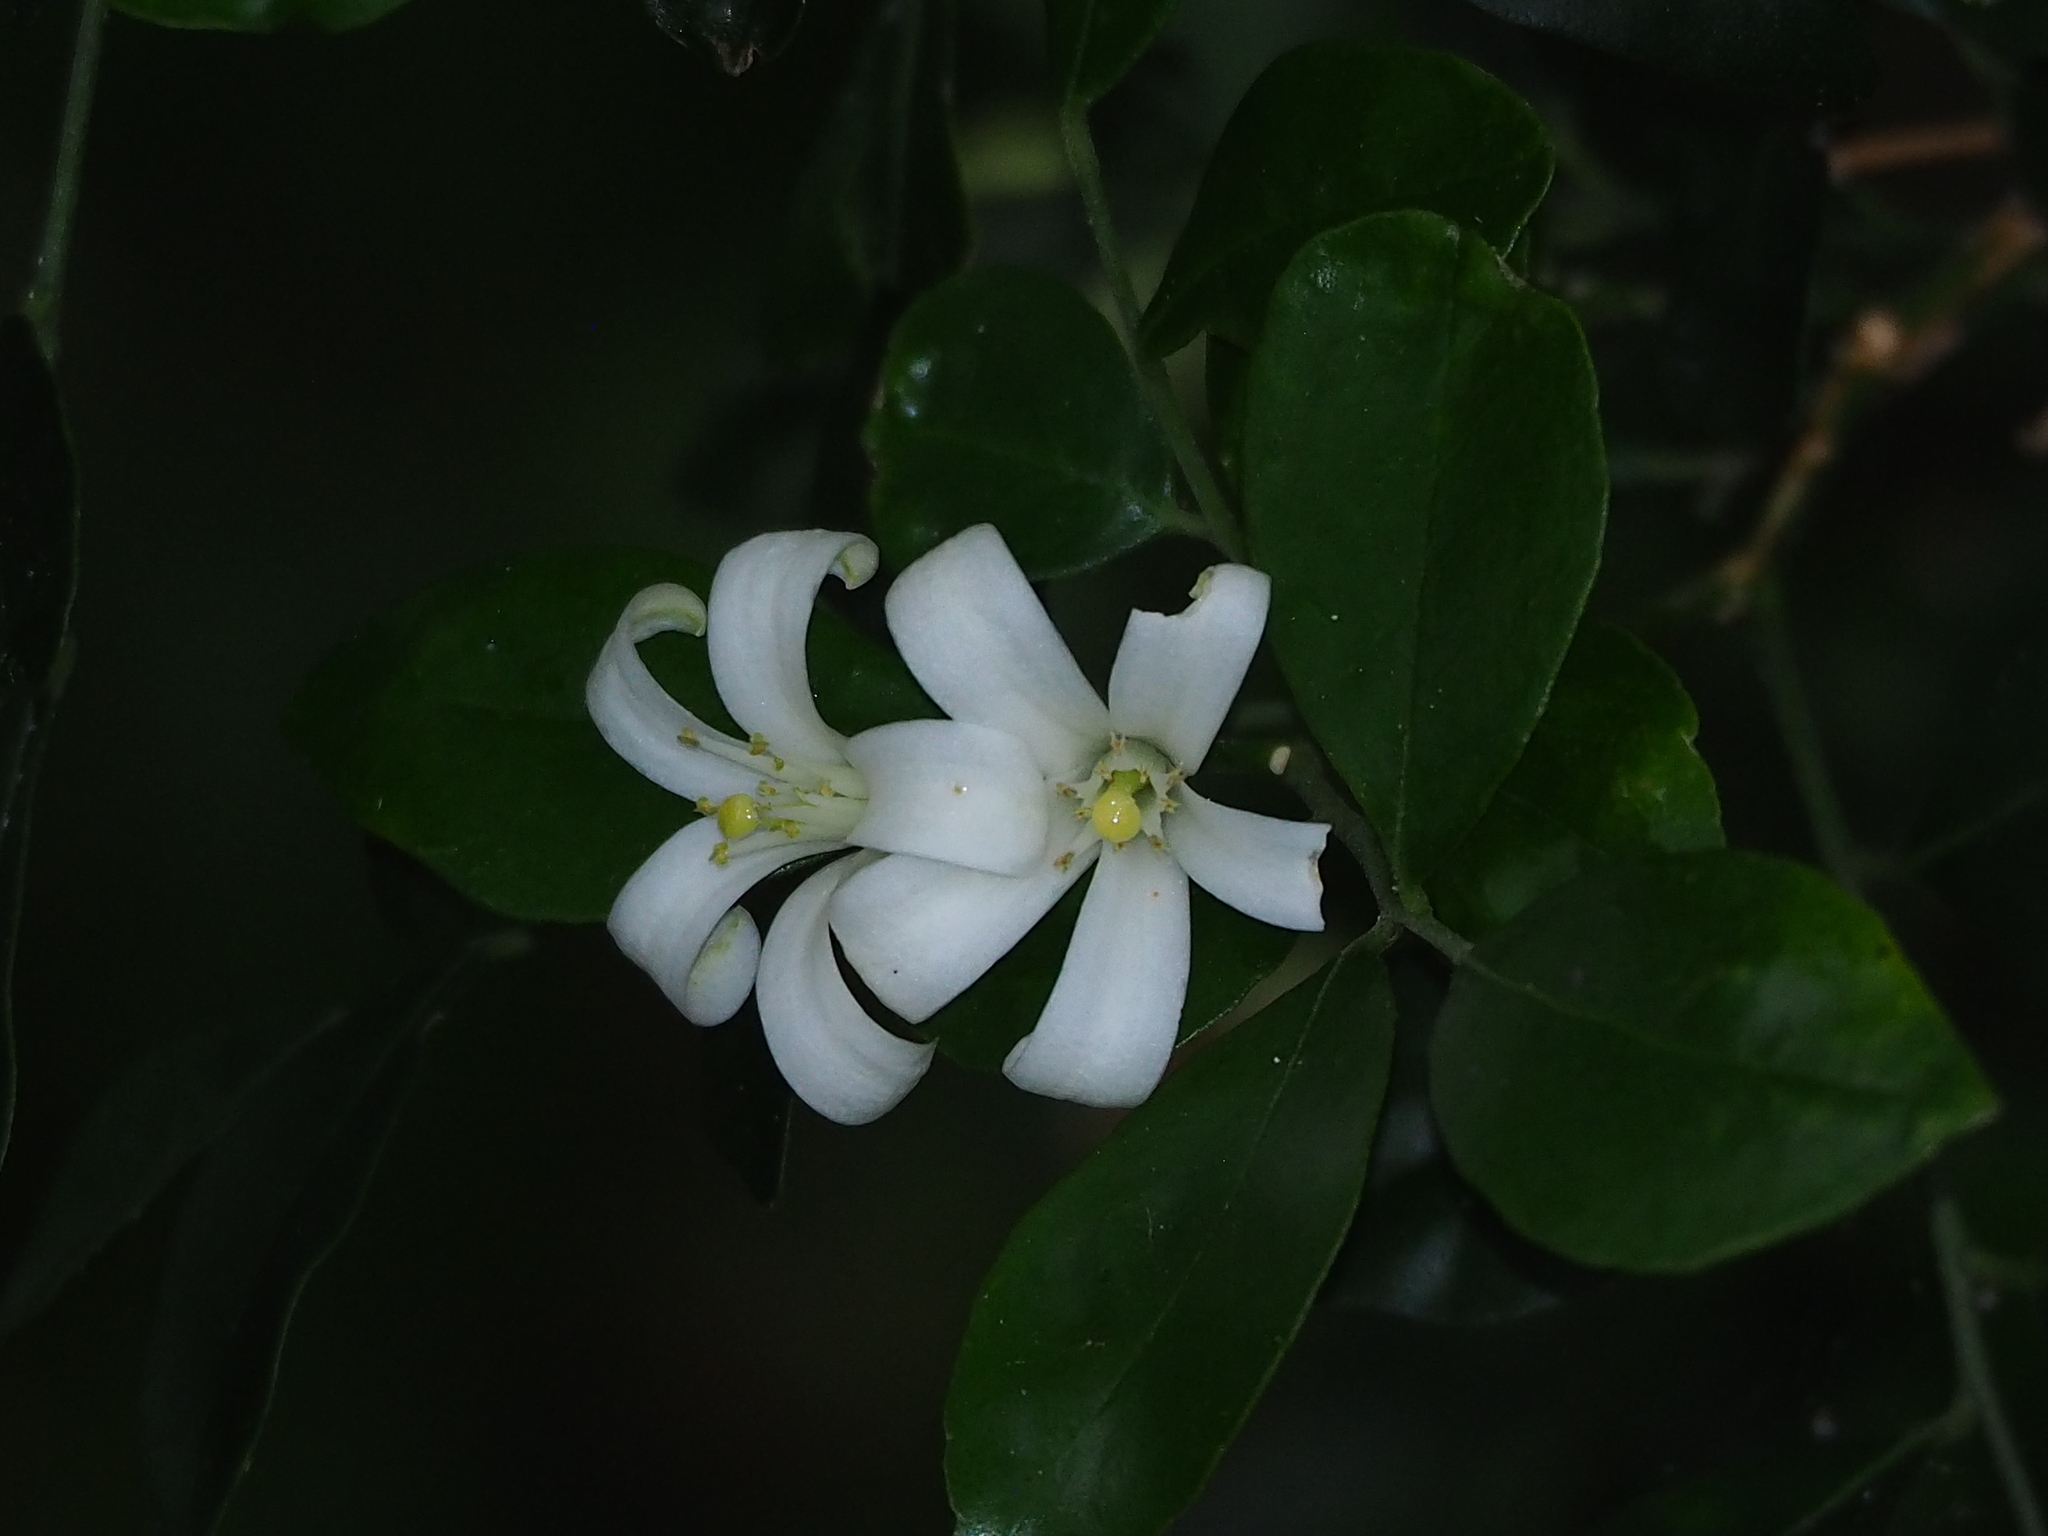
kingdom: Plantae
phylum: Tracheophyta
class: Magnoliopsida
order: Sapindales
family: Rutaceae
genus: Murraya
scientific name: Murraya paniculata
